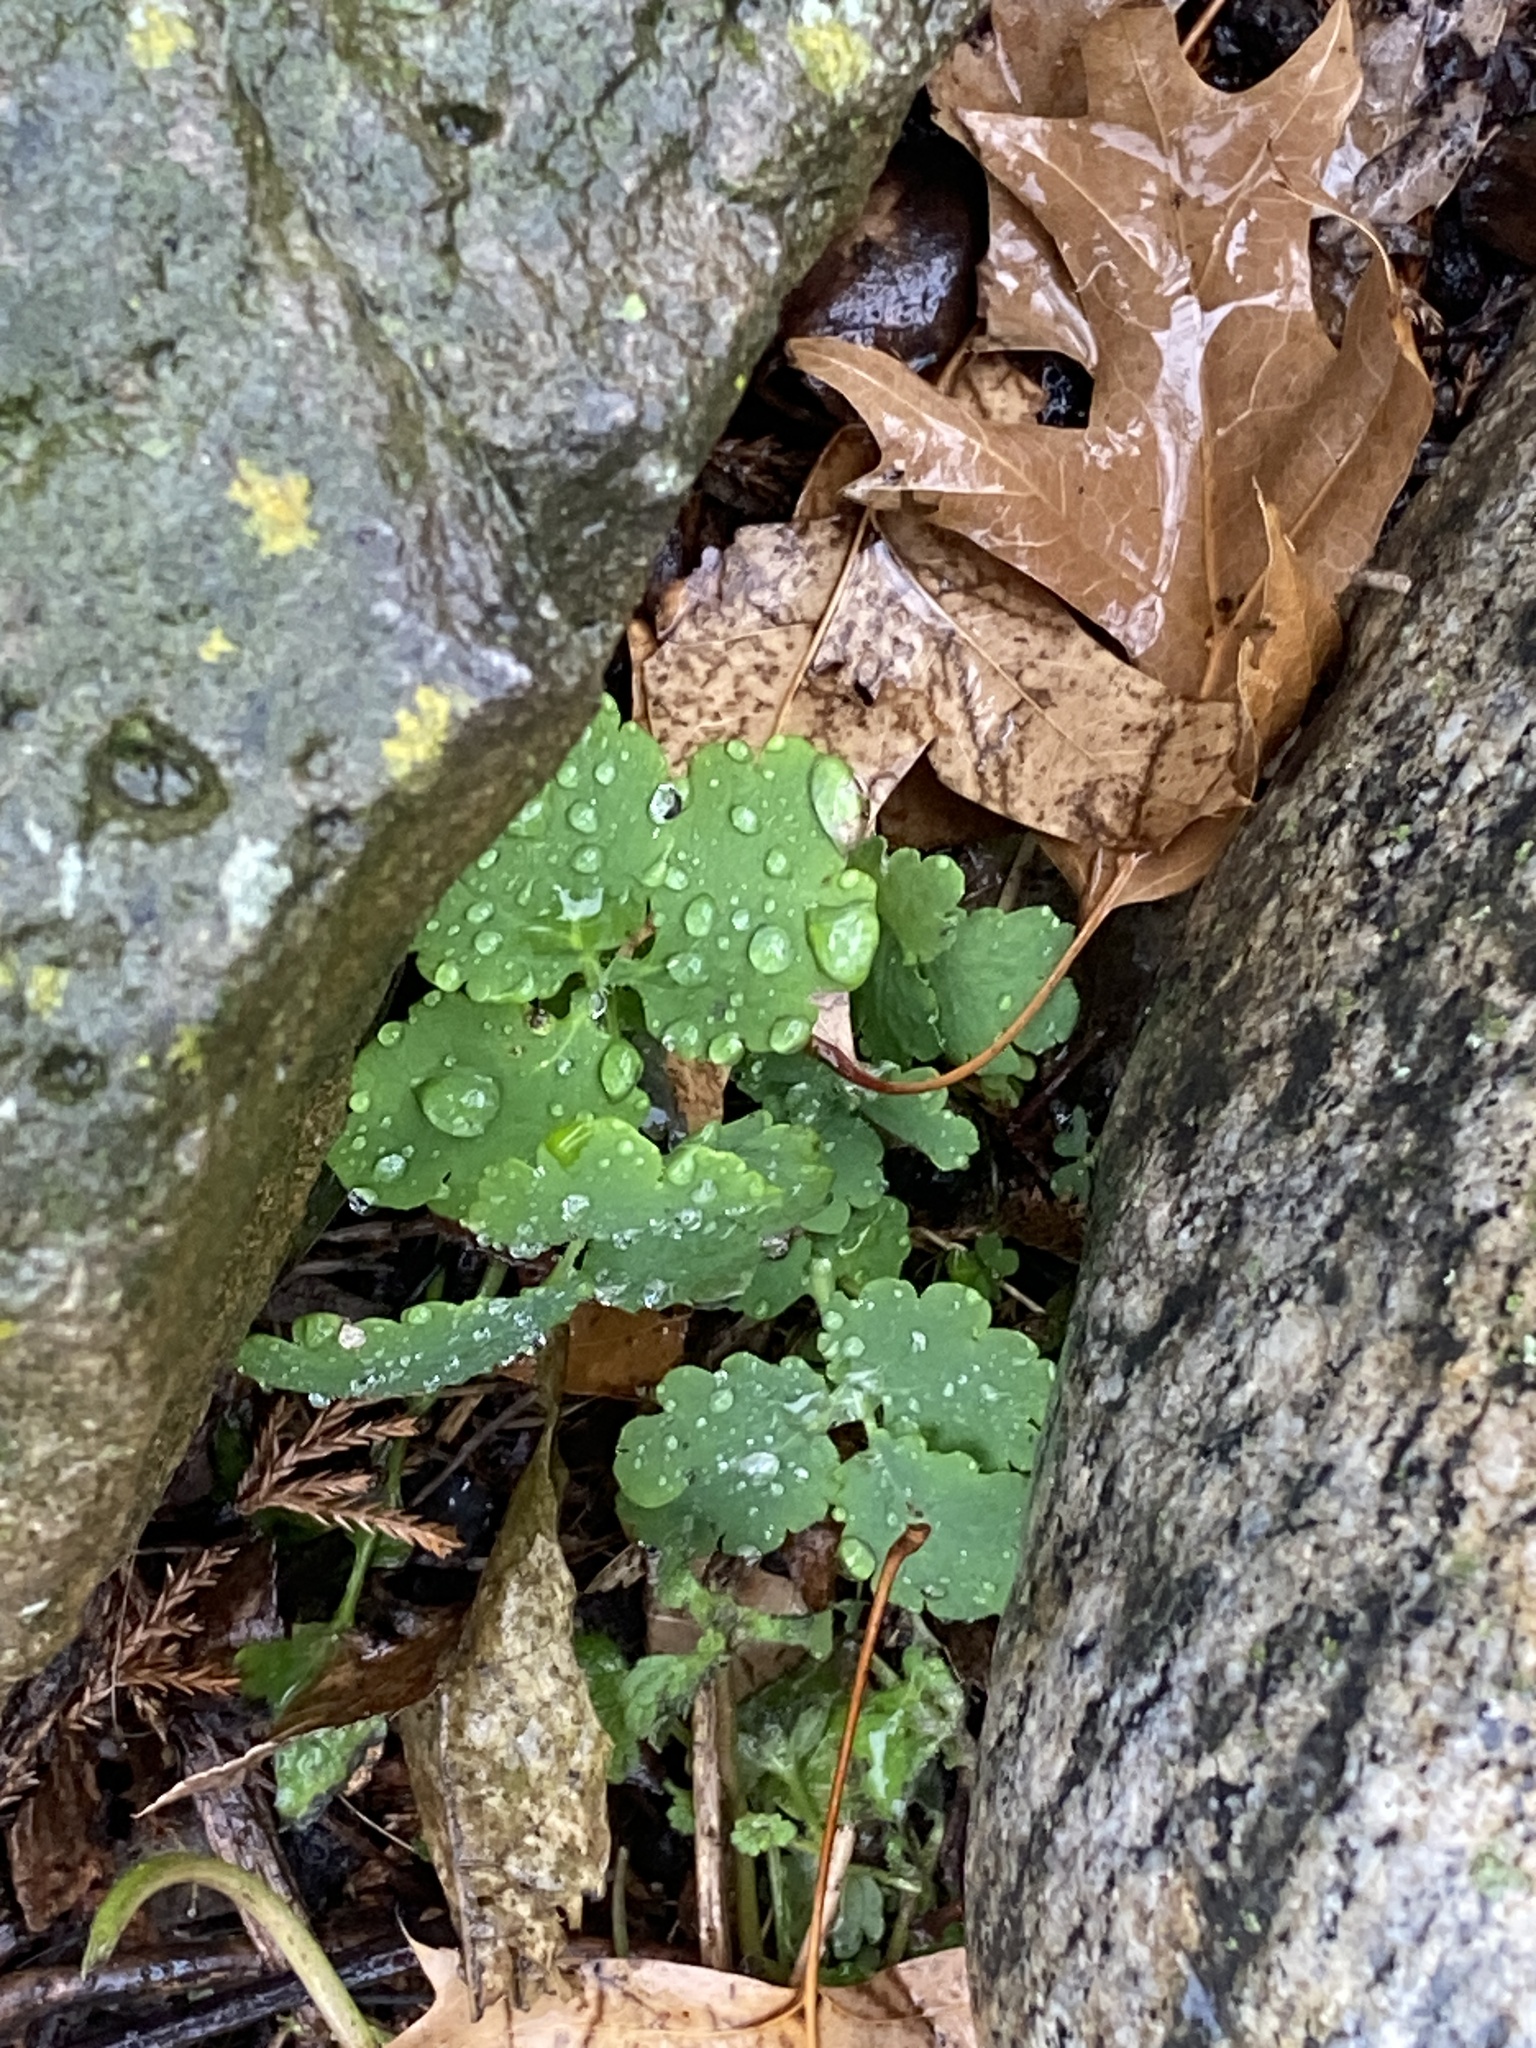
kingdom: Plantae
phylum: Tracheophyta
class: Magnoliopsida
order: Ranunculales
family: Papaveraceae
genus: Chelidonium
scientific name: Chelidonium majus
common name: Greater celandine
